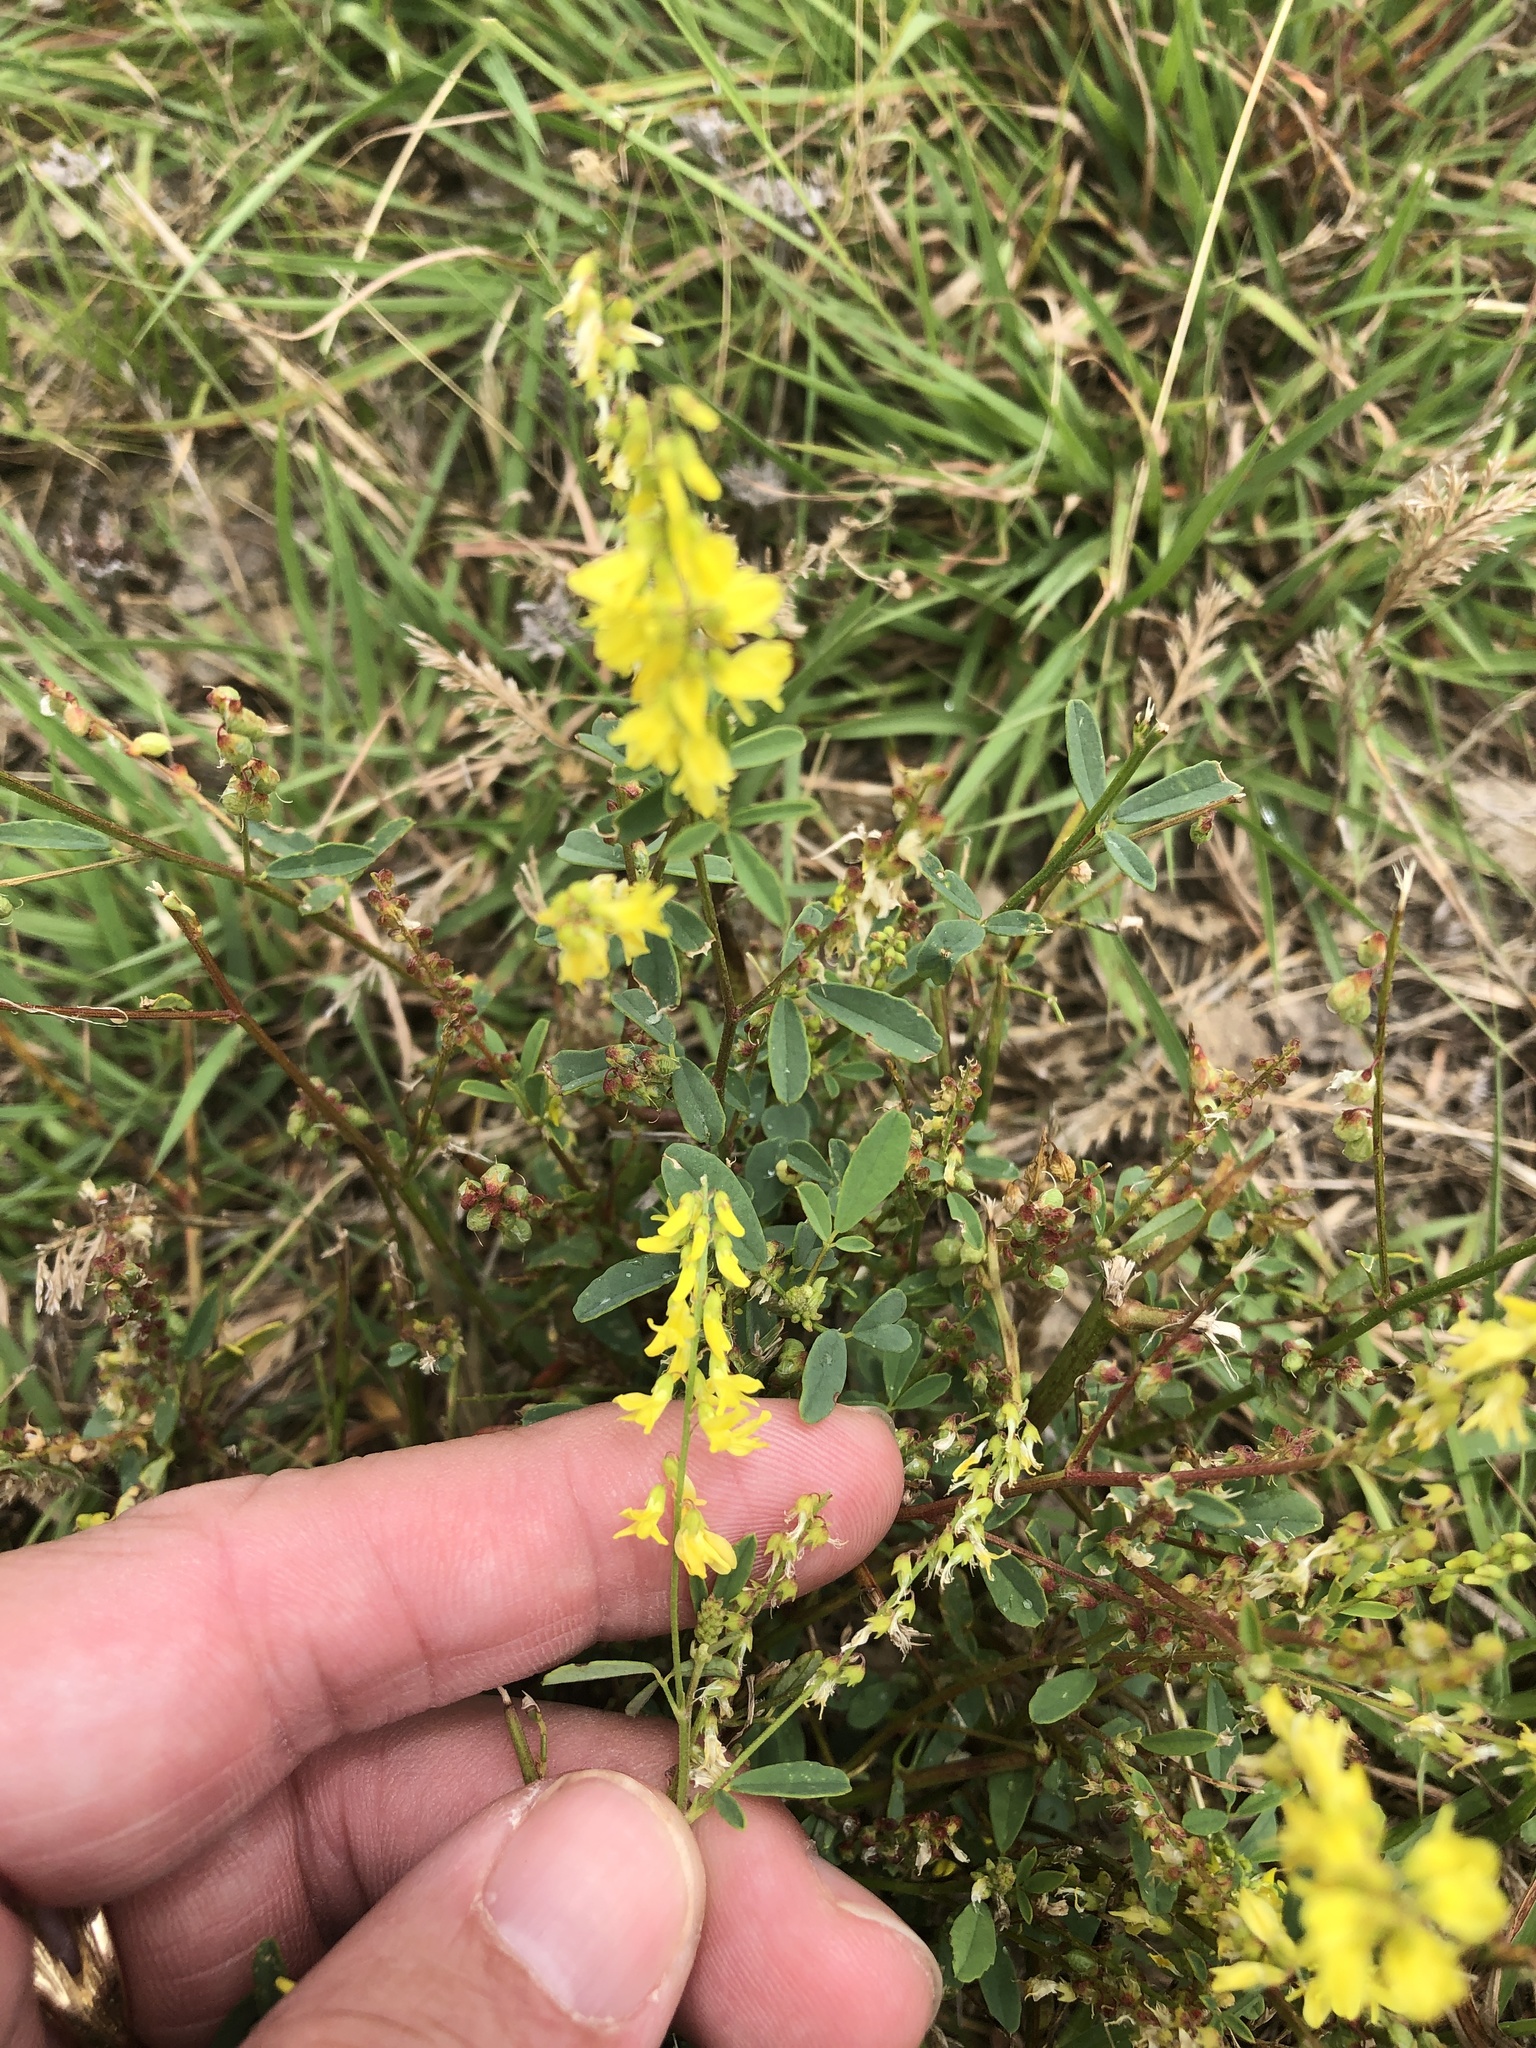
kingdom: Plantae
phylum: Tracheophyta
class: Magnoliopsida
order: Fabales
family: Fabaceae
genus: Melilotus
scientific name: Melilotus officinalis
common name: Sweetclover
